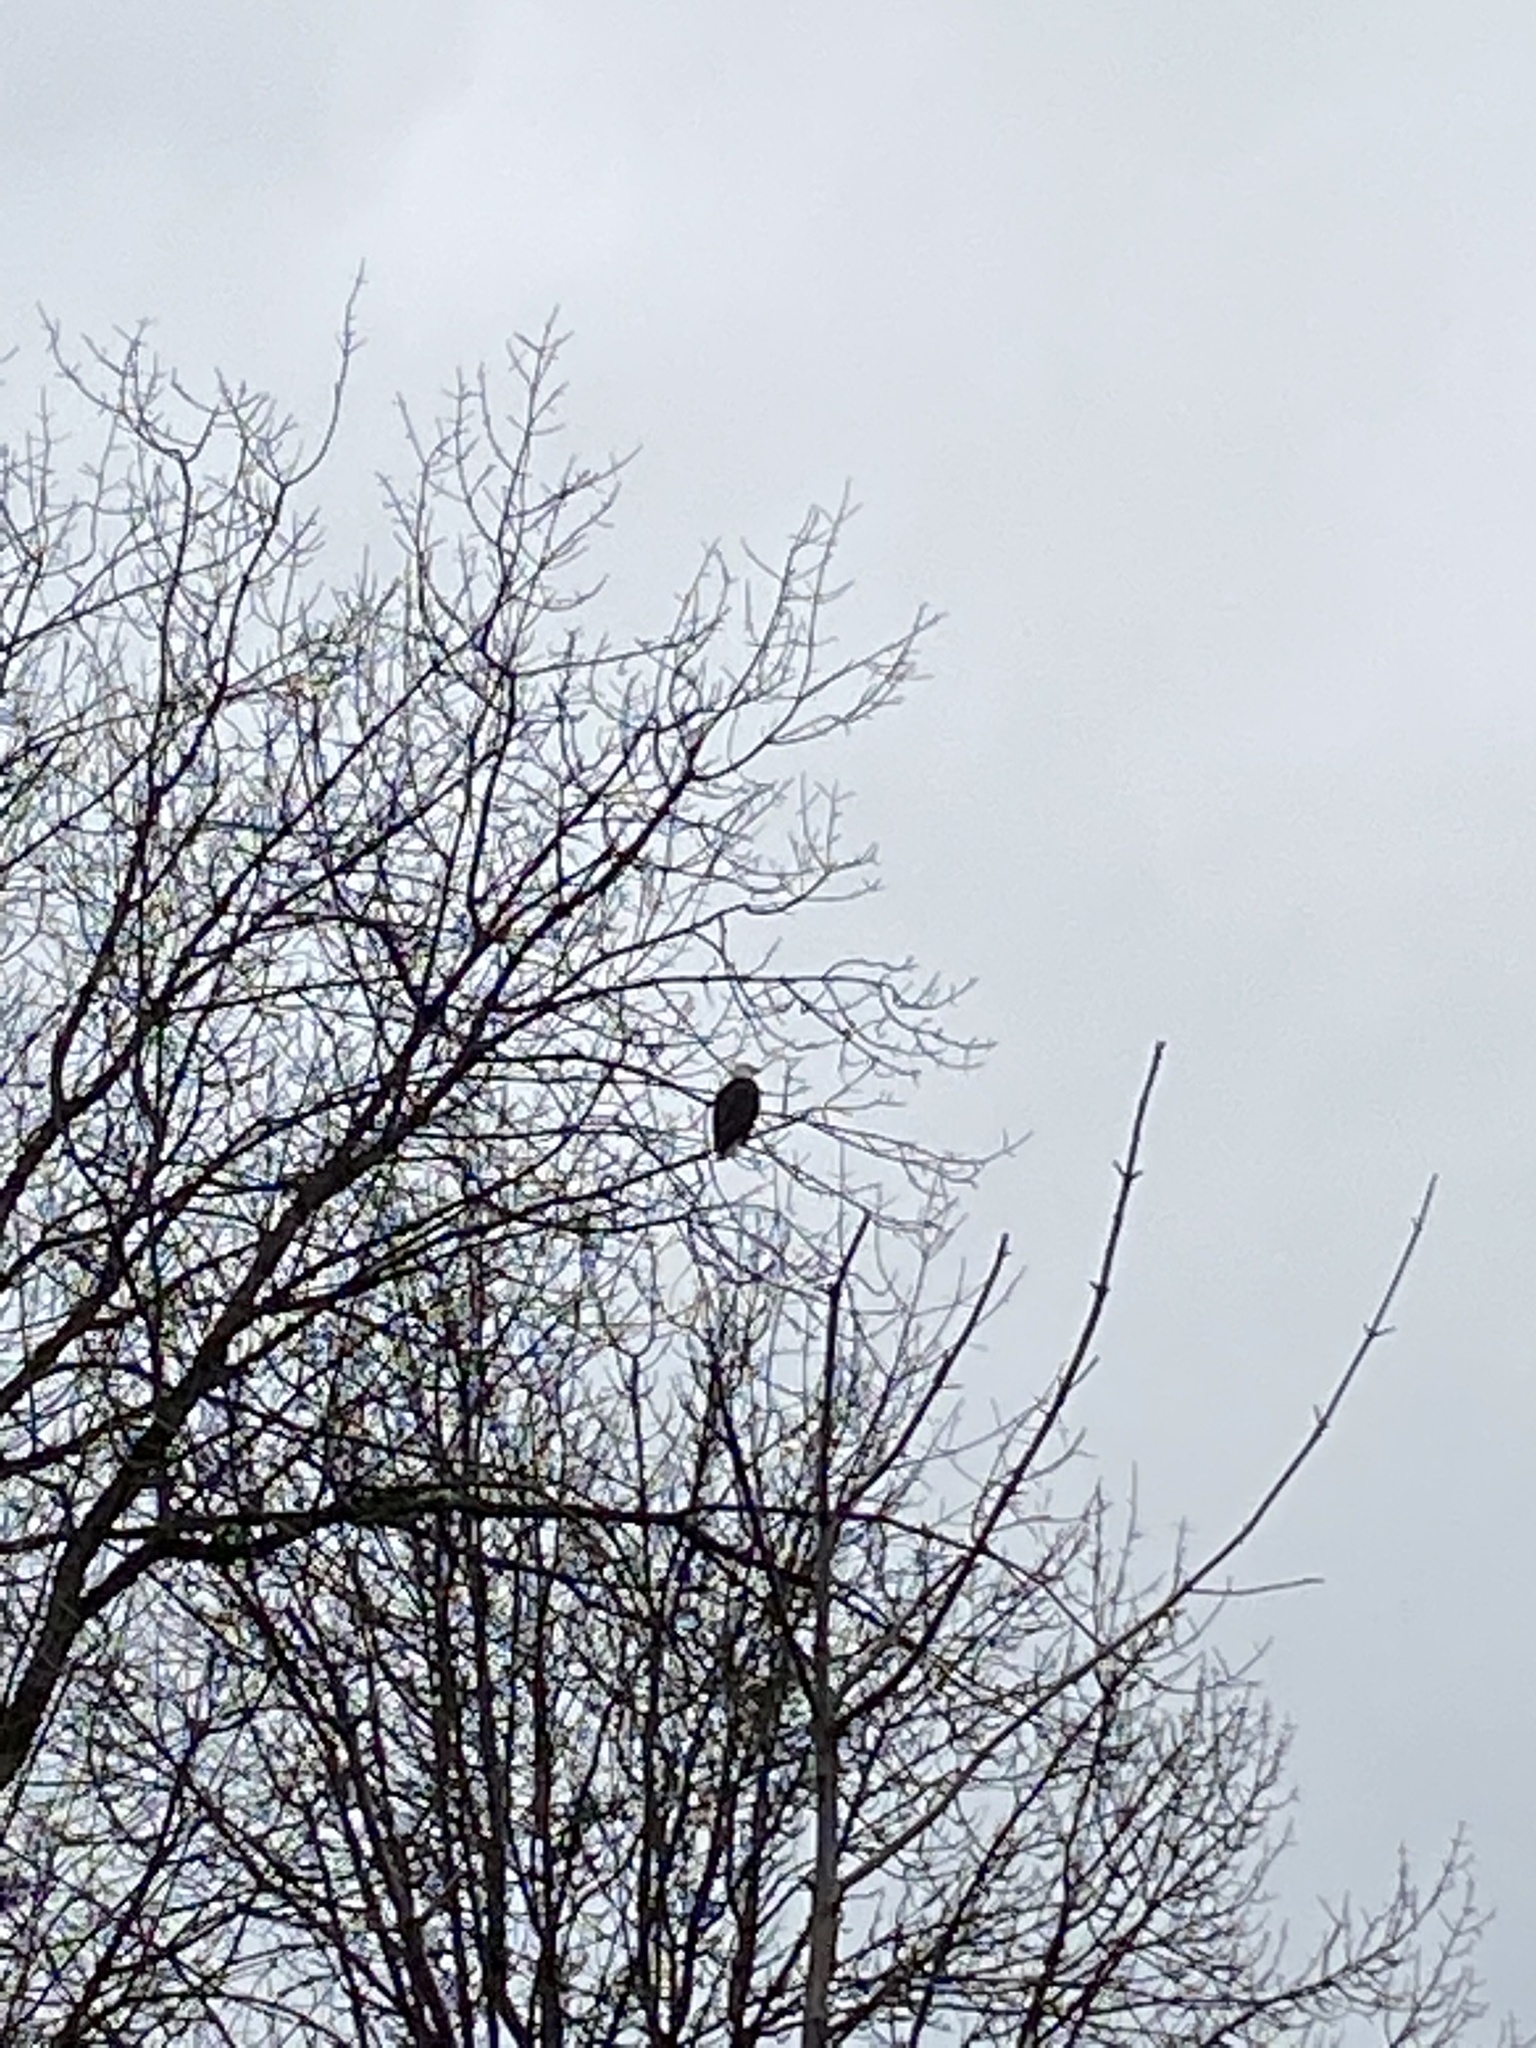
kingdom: Animalia
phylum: Chordata
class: Aves
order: Accipitriformes
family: Accipitridae
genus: Haliaeetus
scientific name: Haliaeetus leucocephalus
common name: Bald eagle
